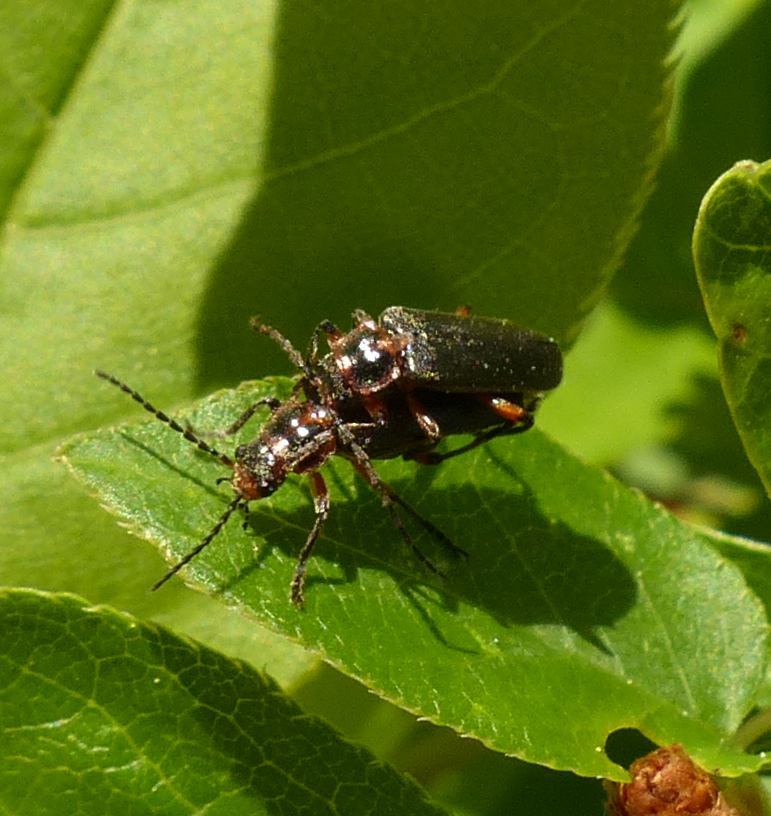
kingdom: Animalia
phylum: Arthropoda
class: Insecta
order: Coleoptera
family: Cantharidae
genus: Atalantycha
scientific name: Atalantycha bilineata
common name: Two-lined leatherwing
